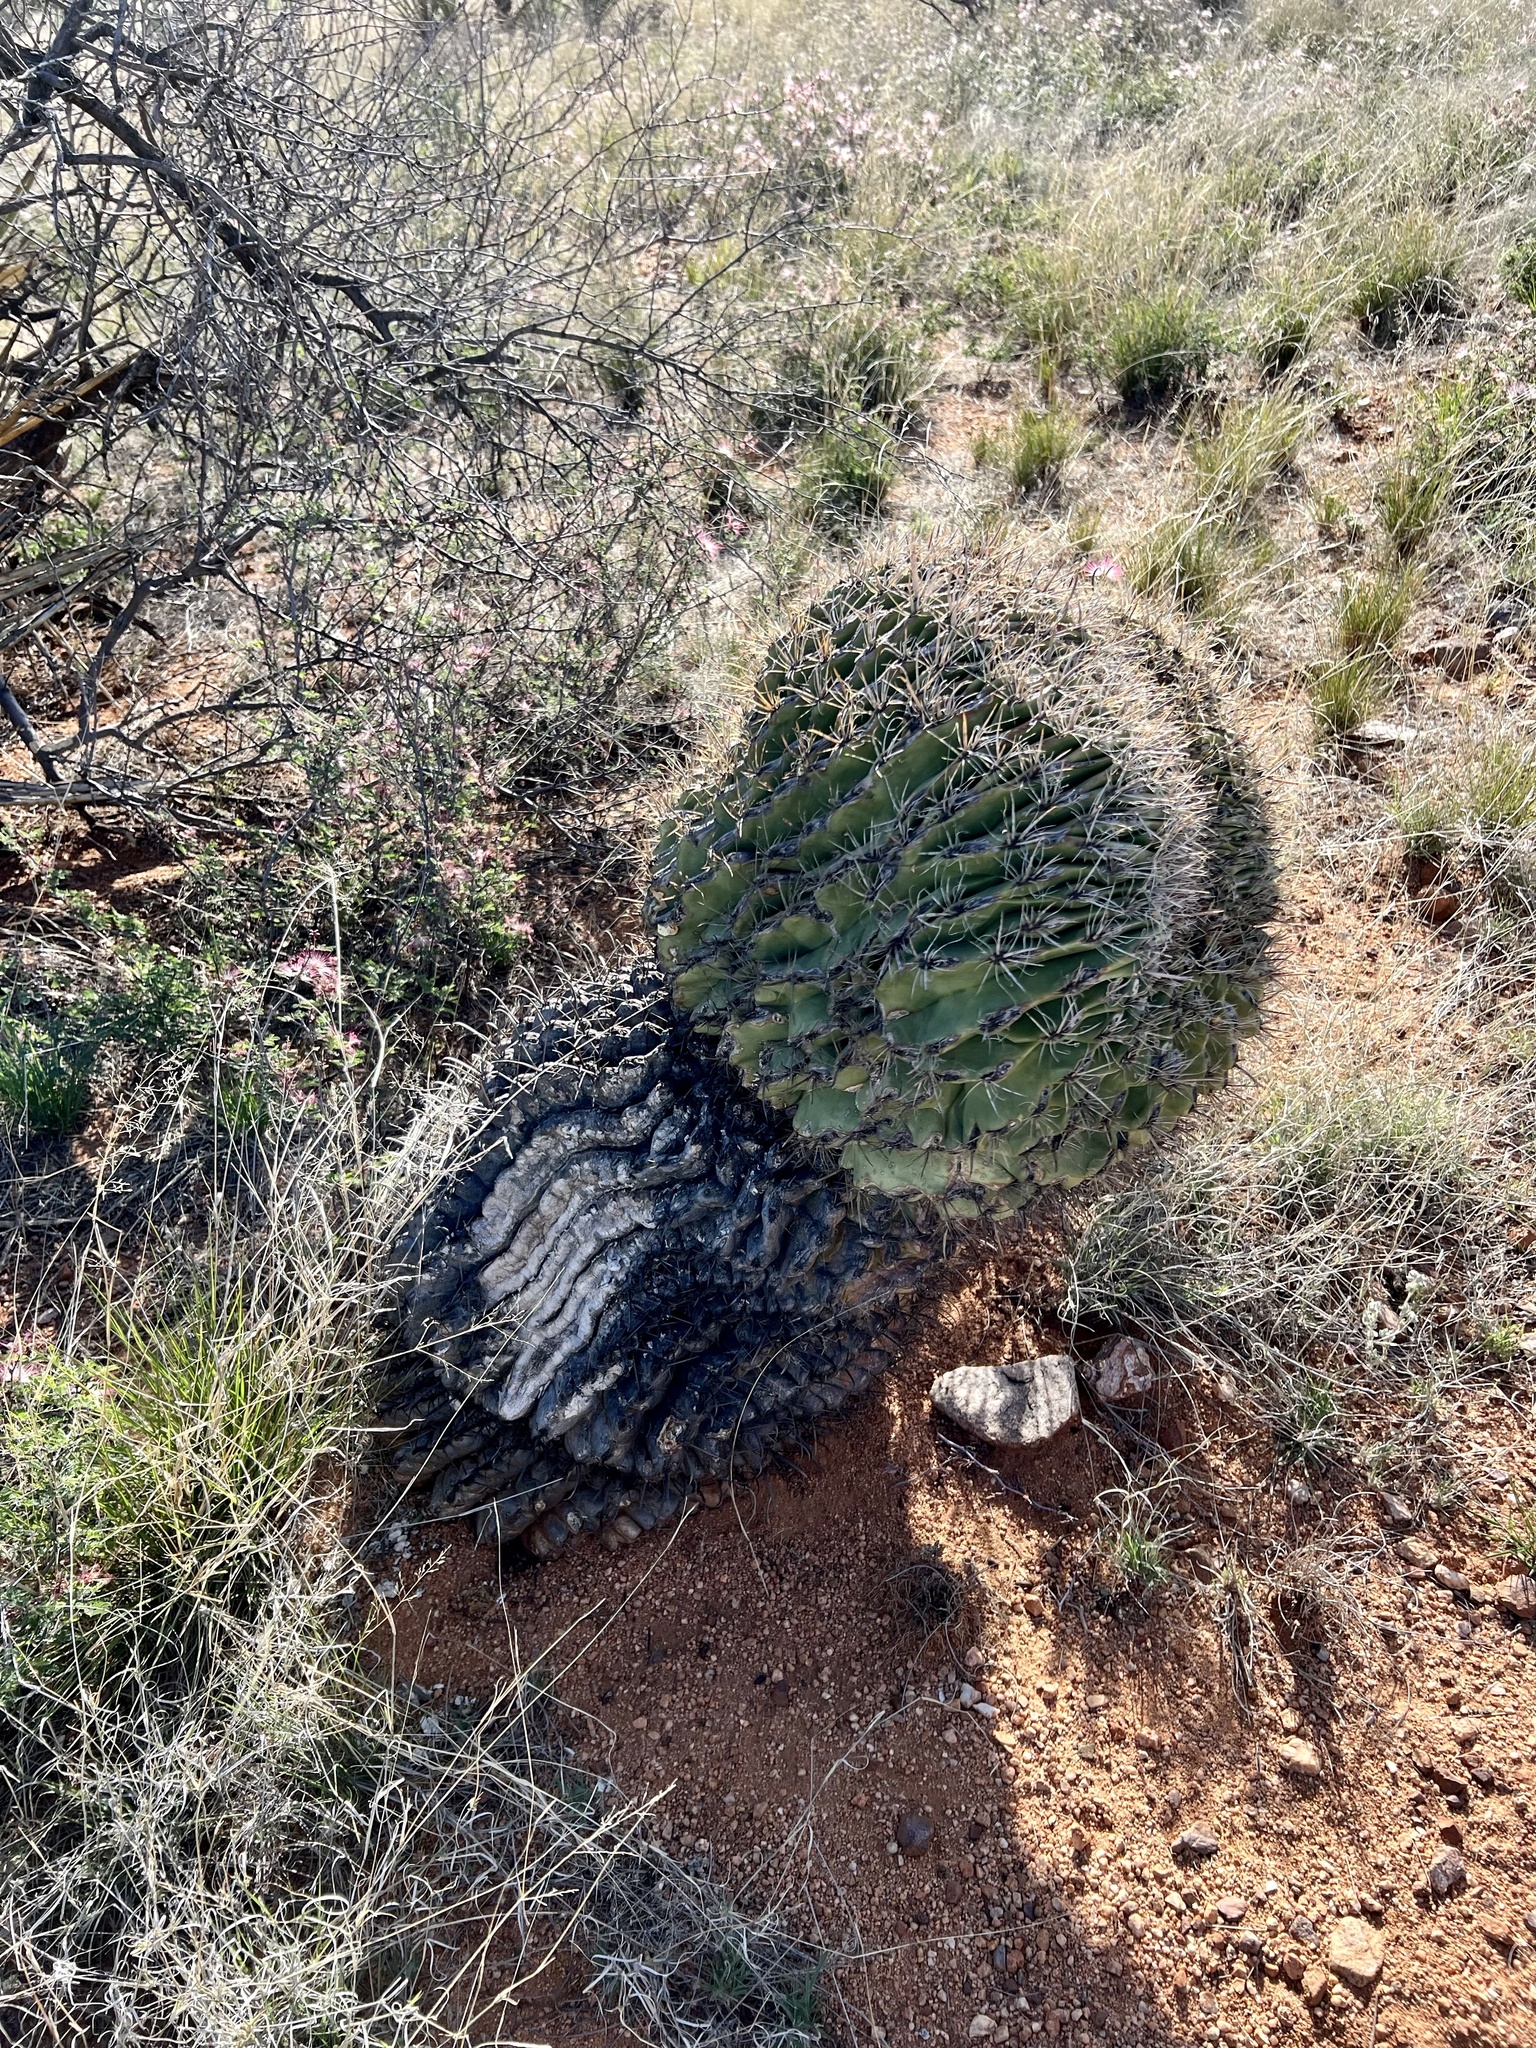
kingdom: Plantae
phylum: Tracheophyta
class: Magnoliopsida
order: Caryophyllales
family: Cactaceae
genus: Ferocactus
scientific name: Ferocactus wislizeni
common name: Candy barrel cactus
